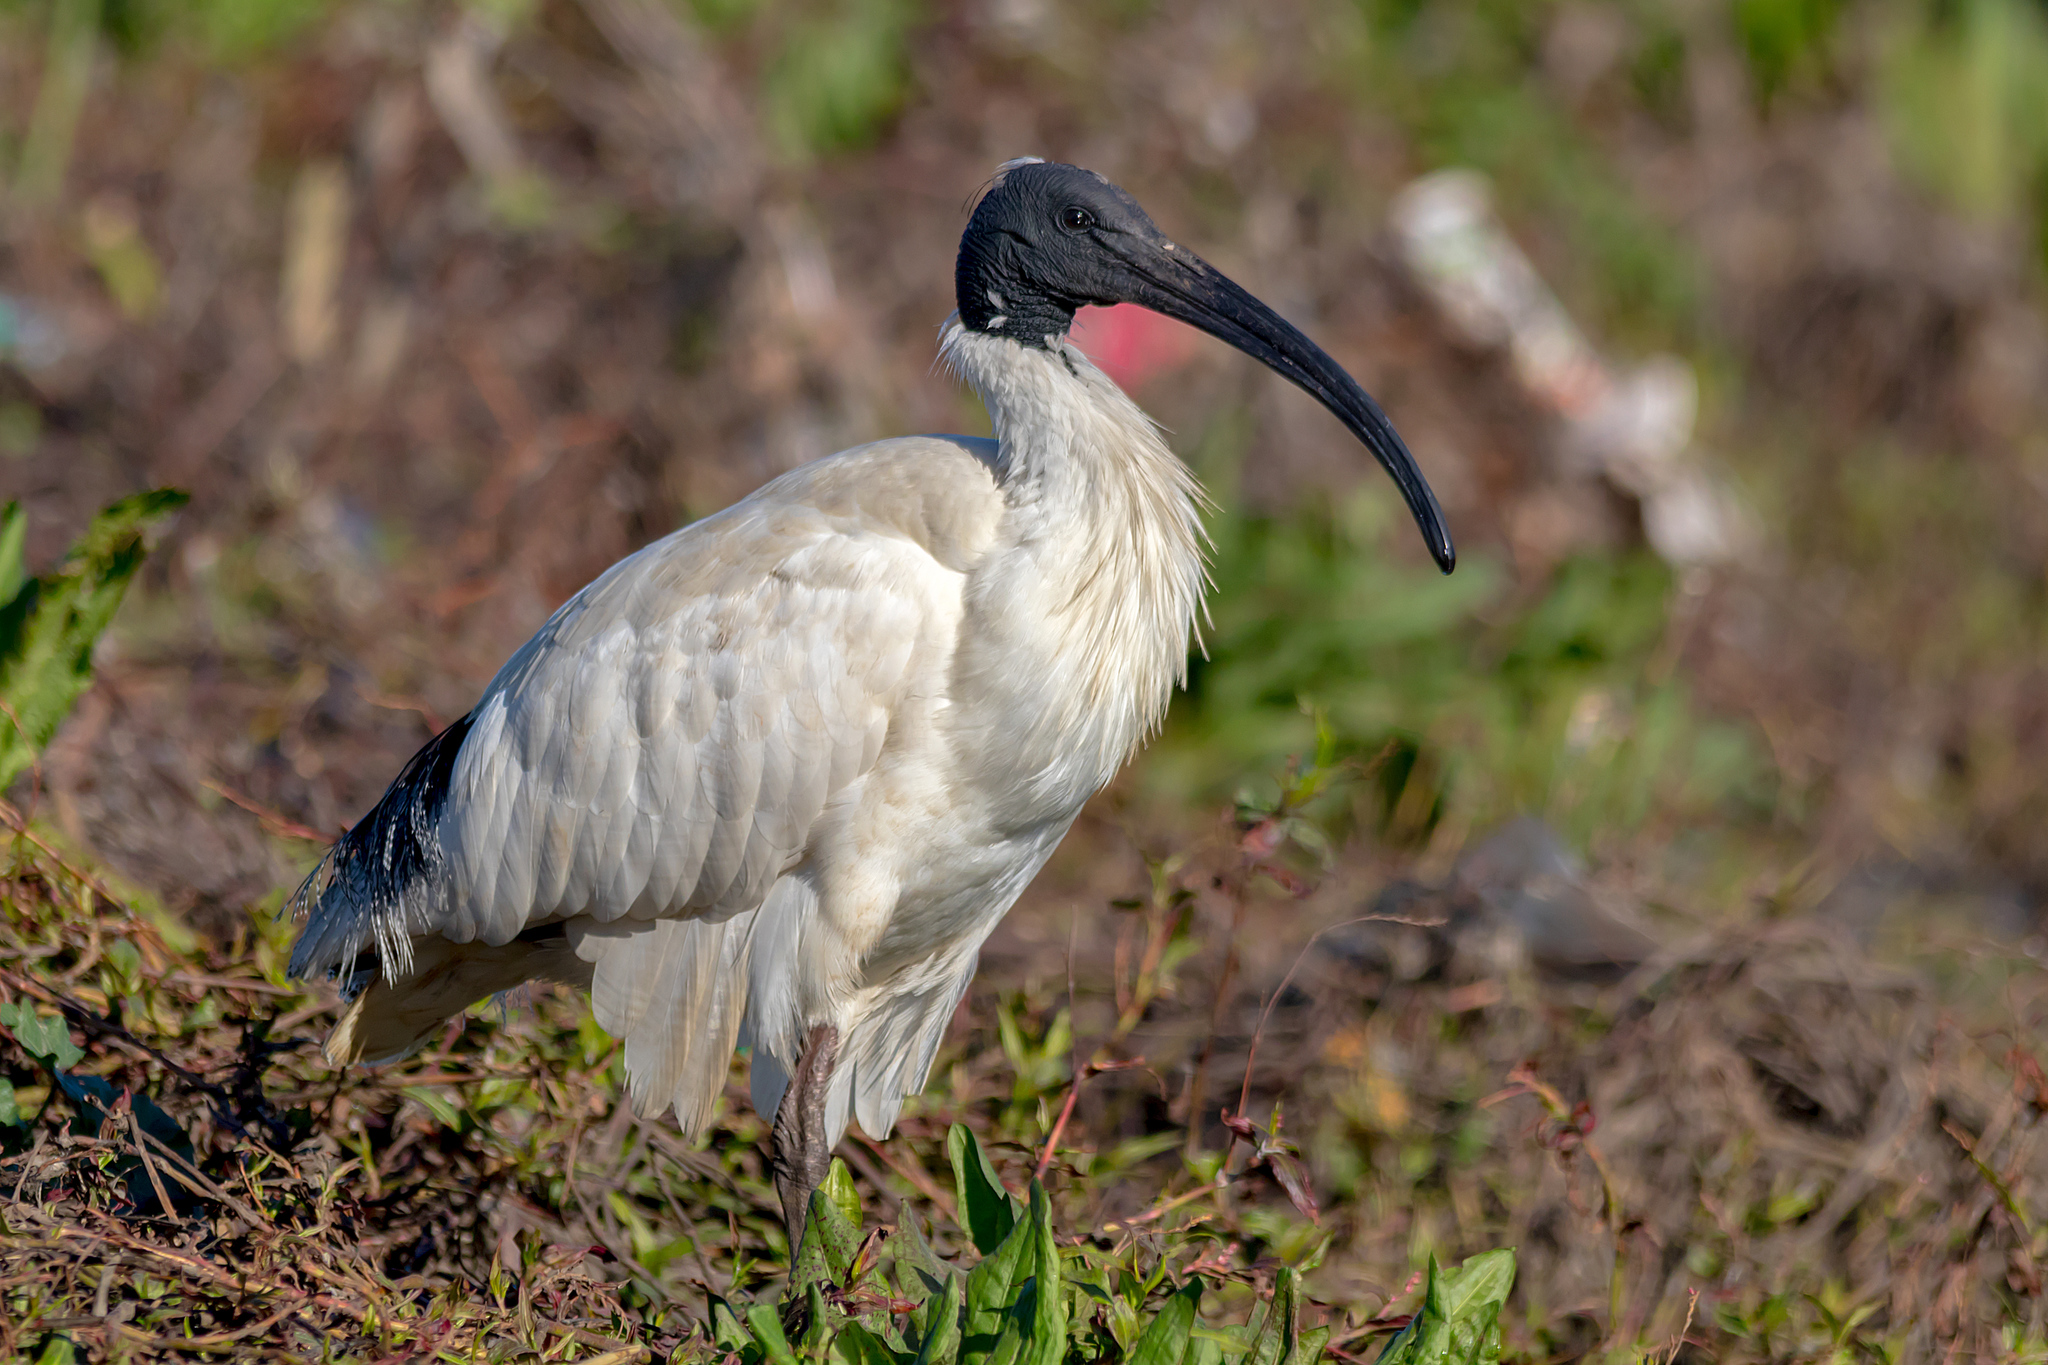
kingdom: Animalia
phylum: Chordata
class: Aves
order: Pelecaniformes
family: Threskiornithidae
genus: Threskiornis
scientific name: Threskiornis molucca
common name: Australian white ibis
